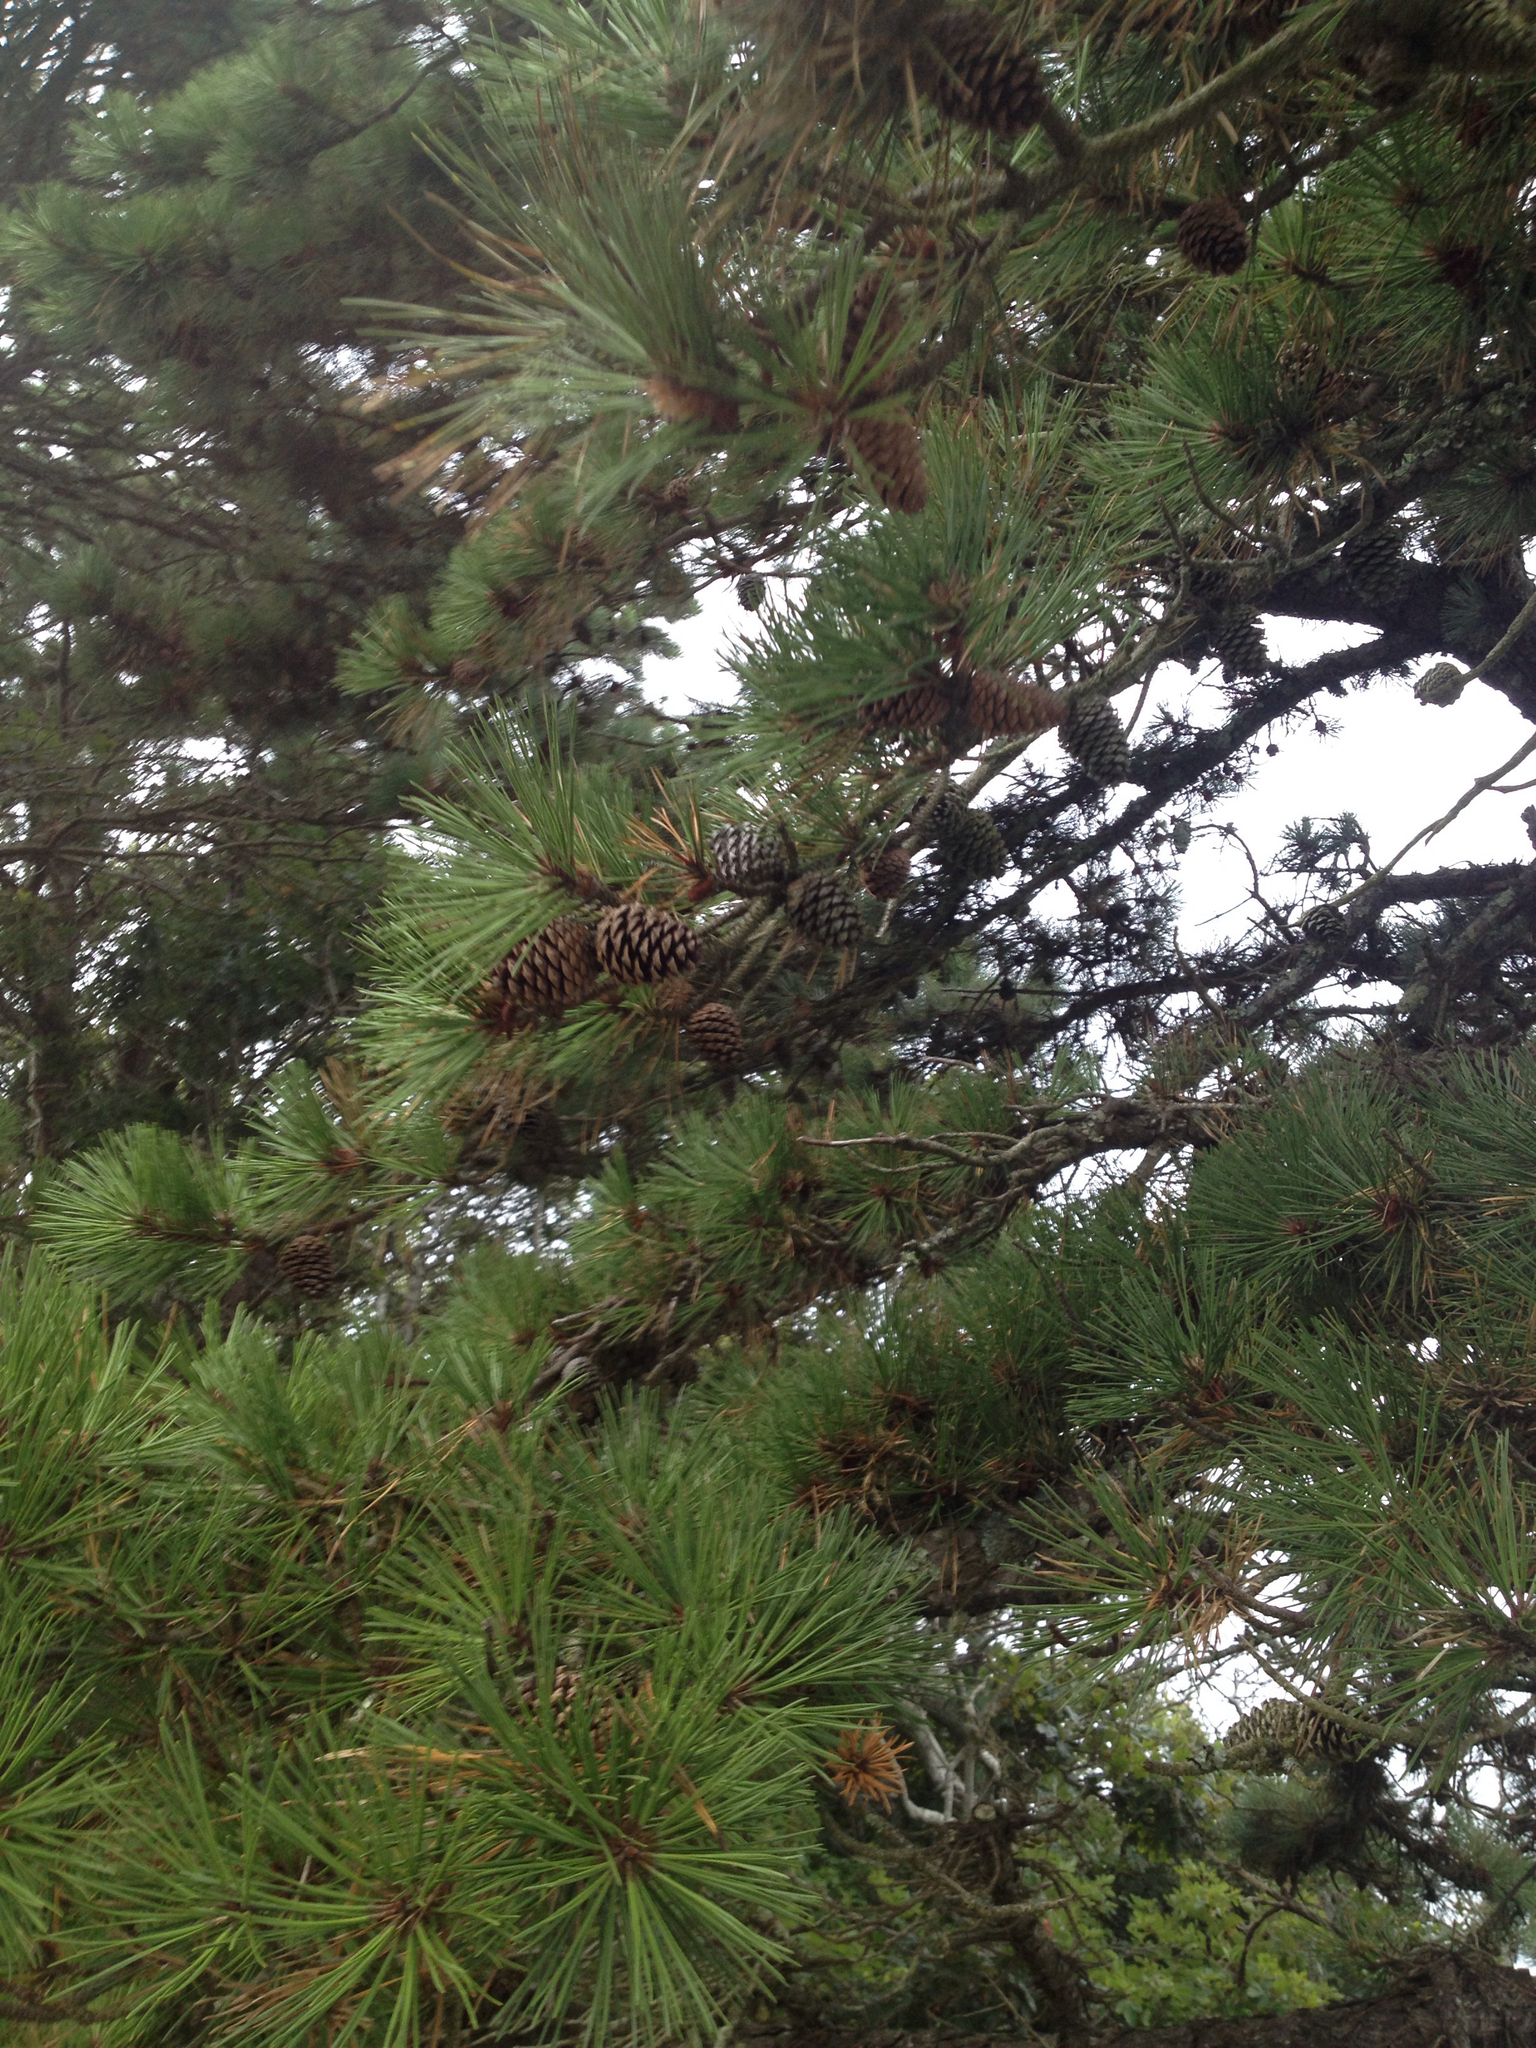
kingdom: Plantae
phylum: Tracheophyta
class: Pinopsida
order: Pinales
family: Pinaceae
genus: Pinus
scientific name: Pinus rigida
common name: Pitch pine
